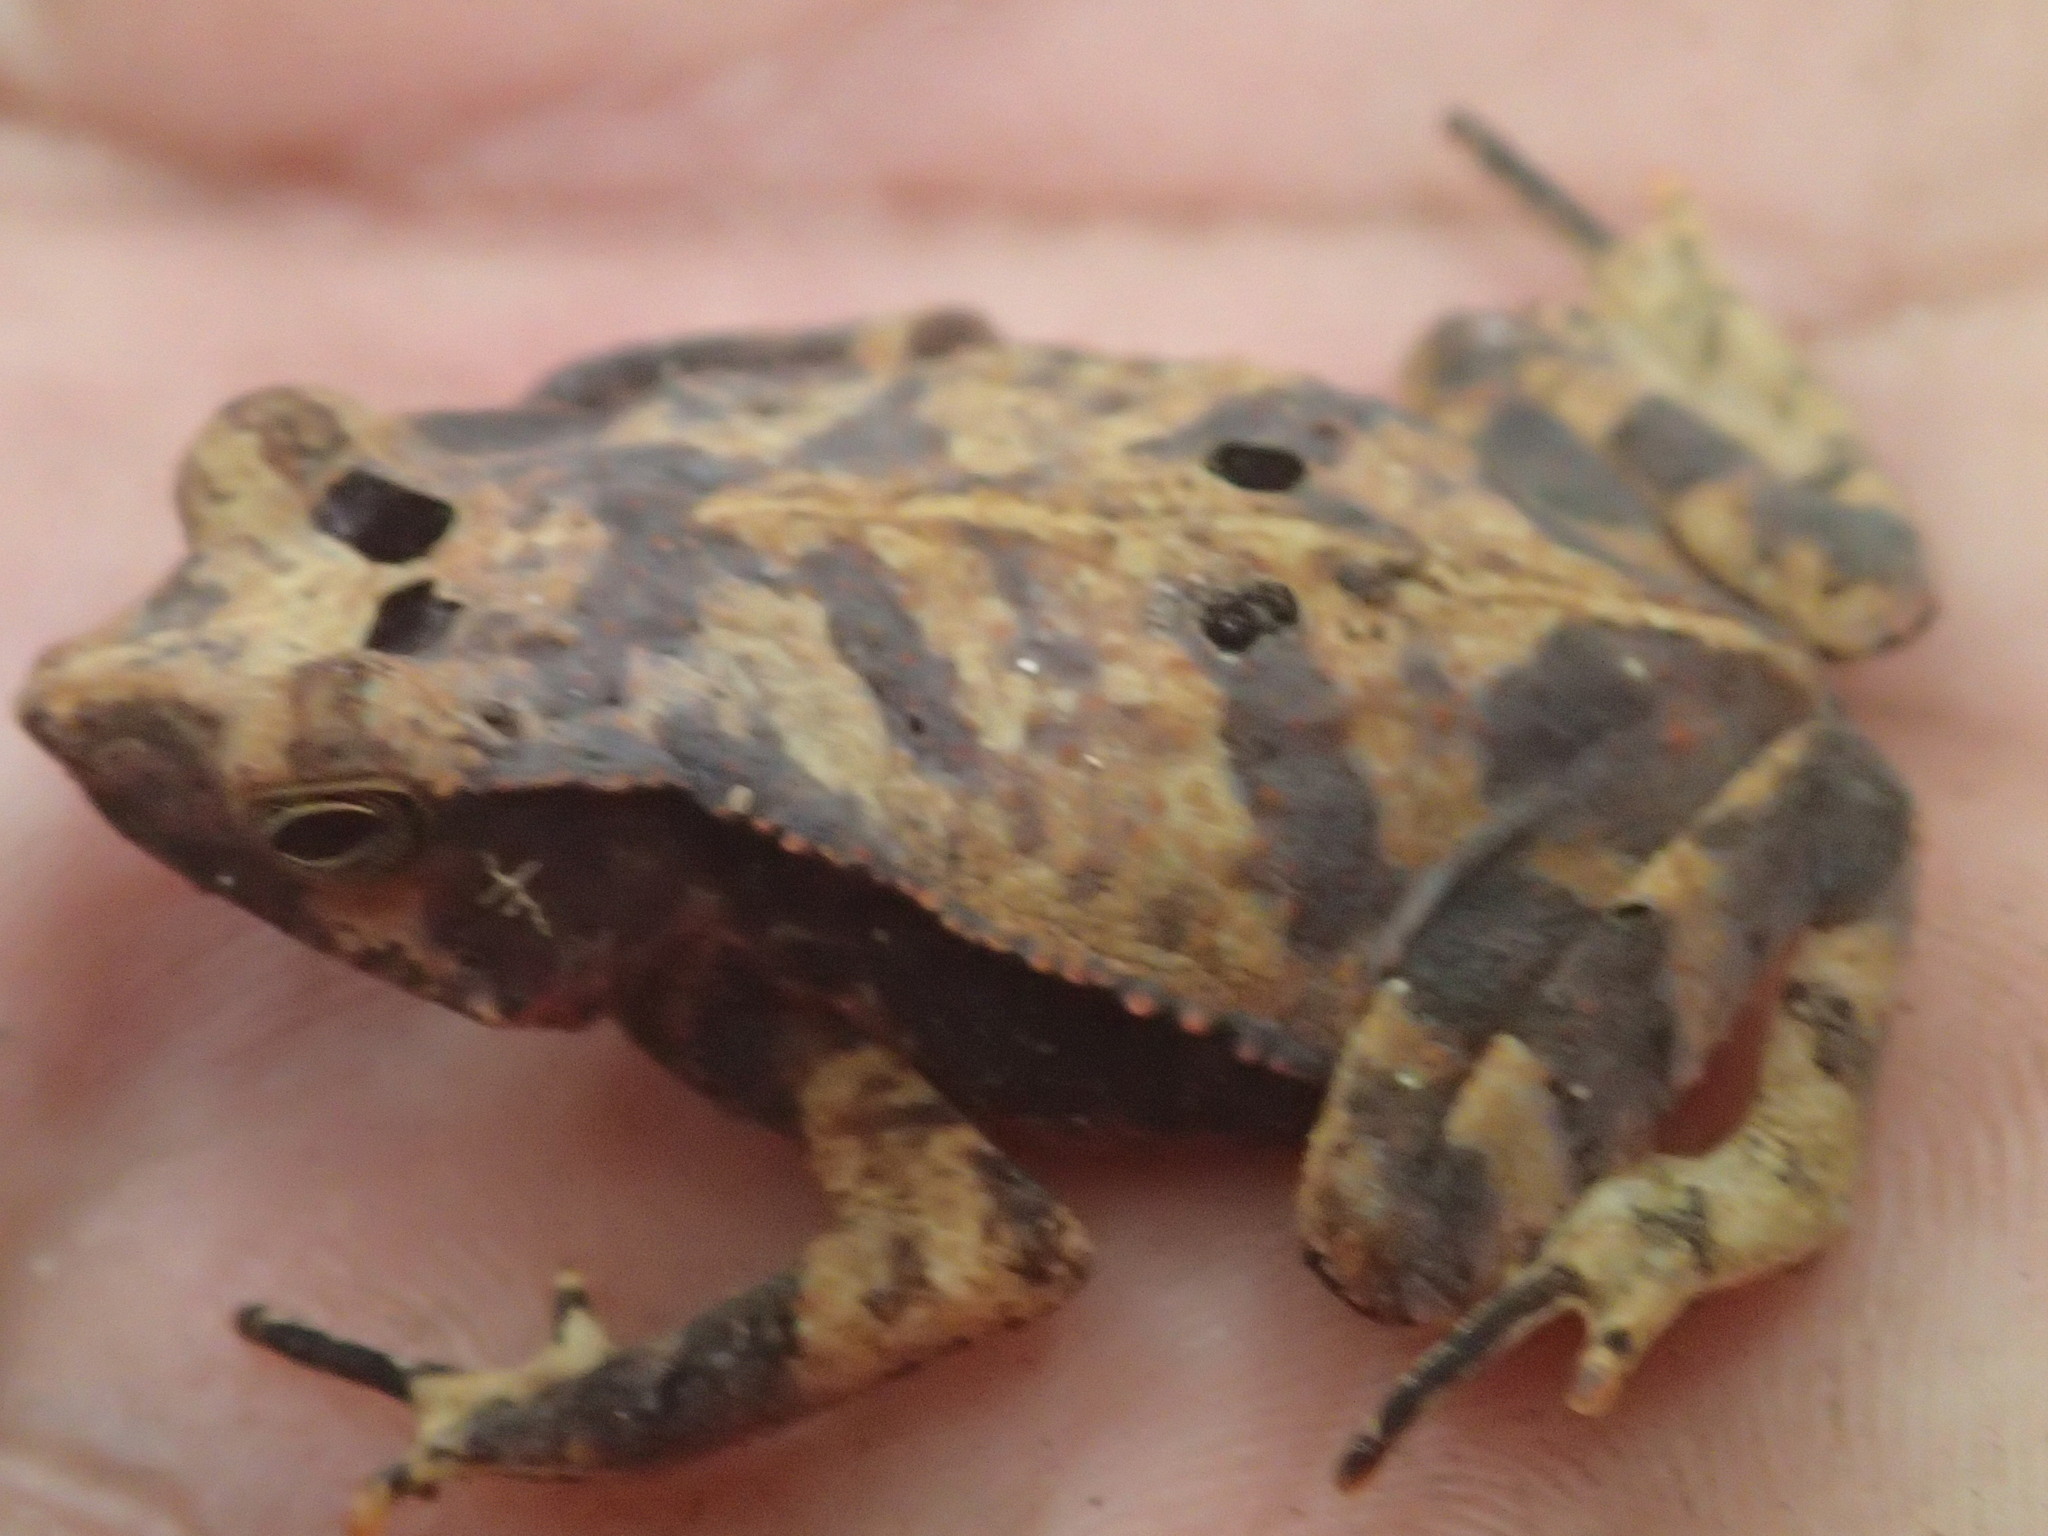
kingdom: Animalia
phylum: Chordata
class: Amphibia
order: Anura
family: Bufonidae
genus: Rhinella
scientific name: Rhinella margaritifera
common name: Mitred toad
